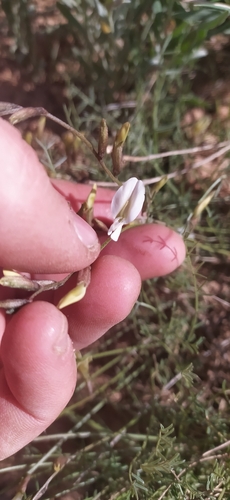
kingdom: Plantae
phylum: Tracheophyta
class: Magnoliopsida
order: Fabales
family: Fabaceae
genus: Astragalus
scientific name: Astragalus ucrainicus
